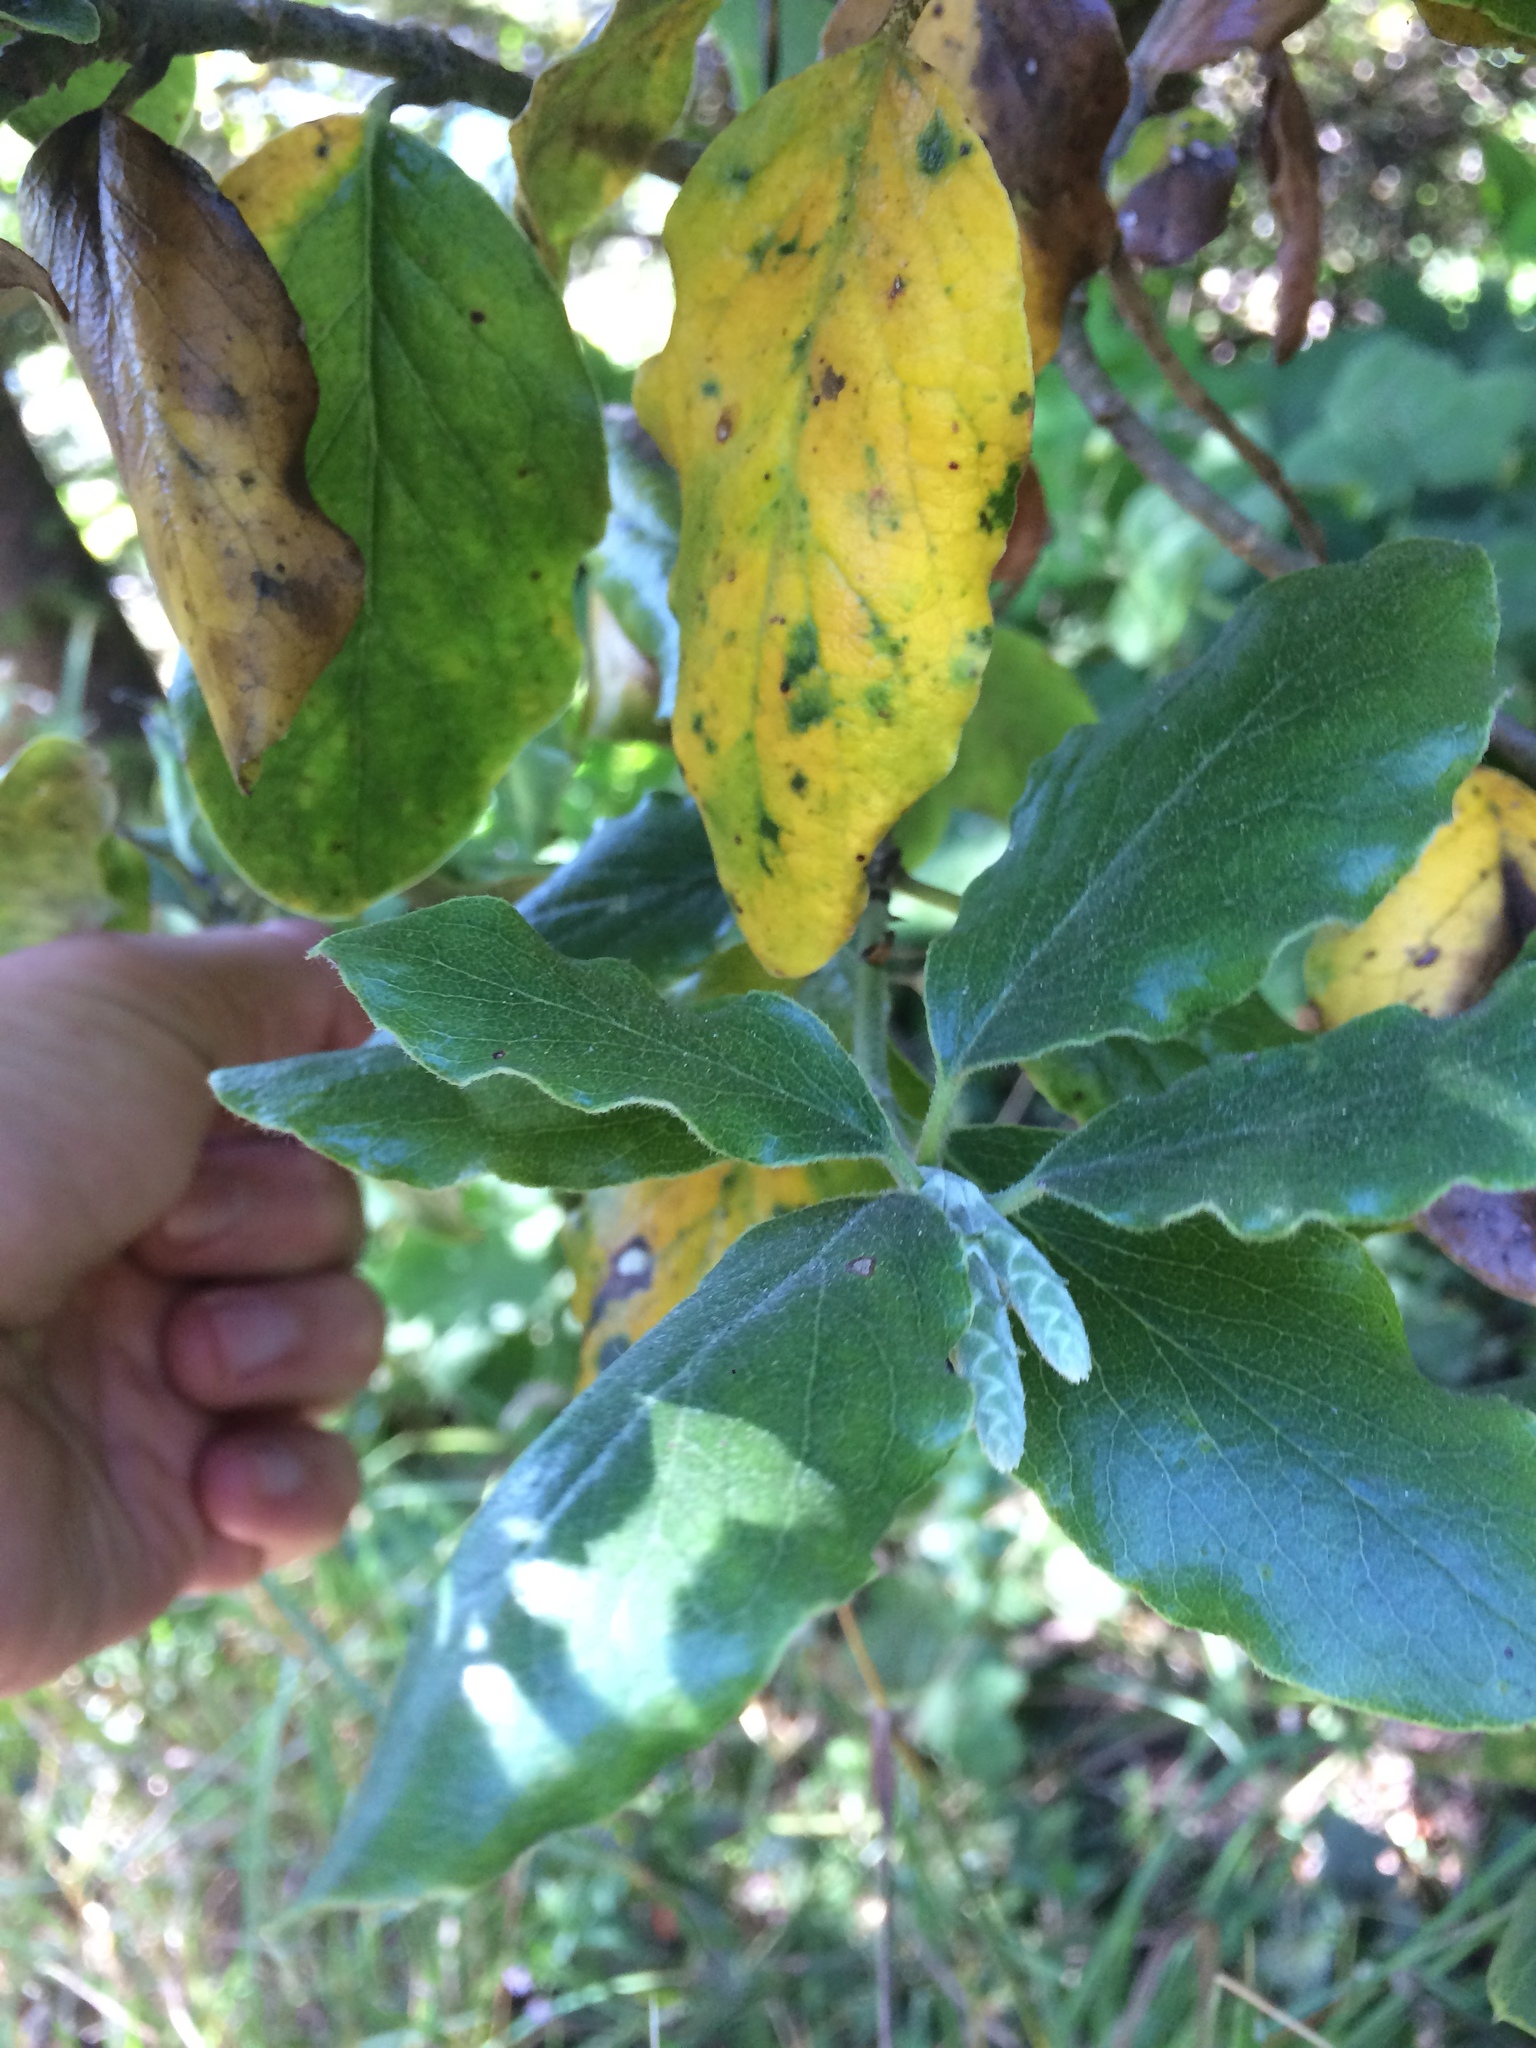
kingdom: Plantae
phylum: Tracheophyta
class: Magnoliopsida
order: Garryales
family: Garryaceae
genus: Garrya
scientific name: Garrya elliptica
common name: Silk-tassel
